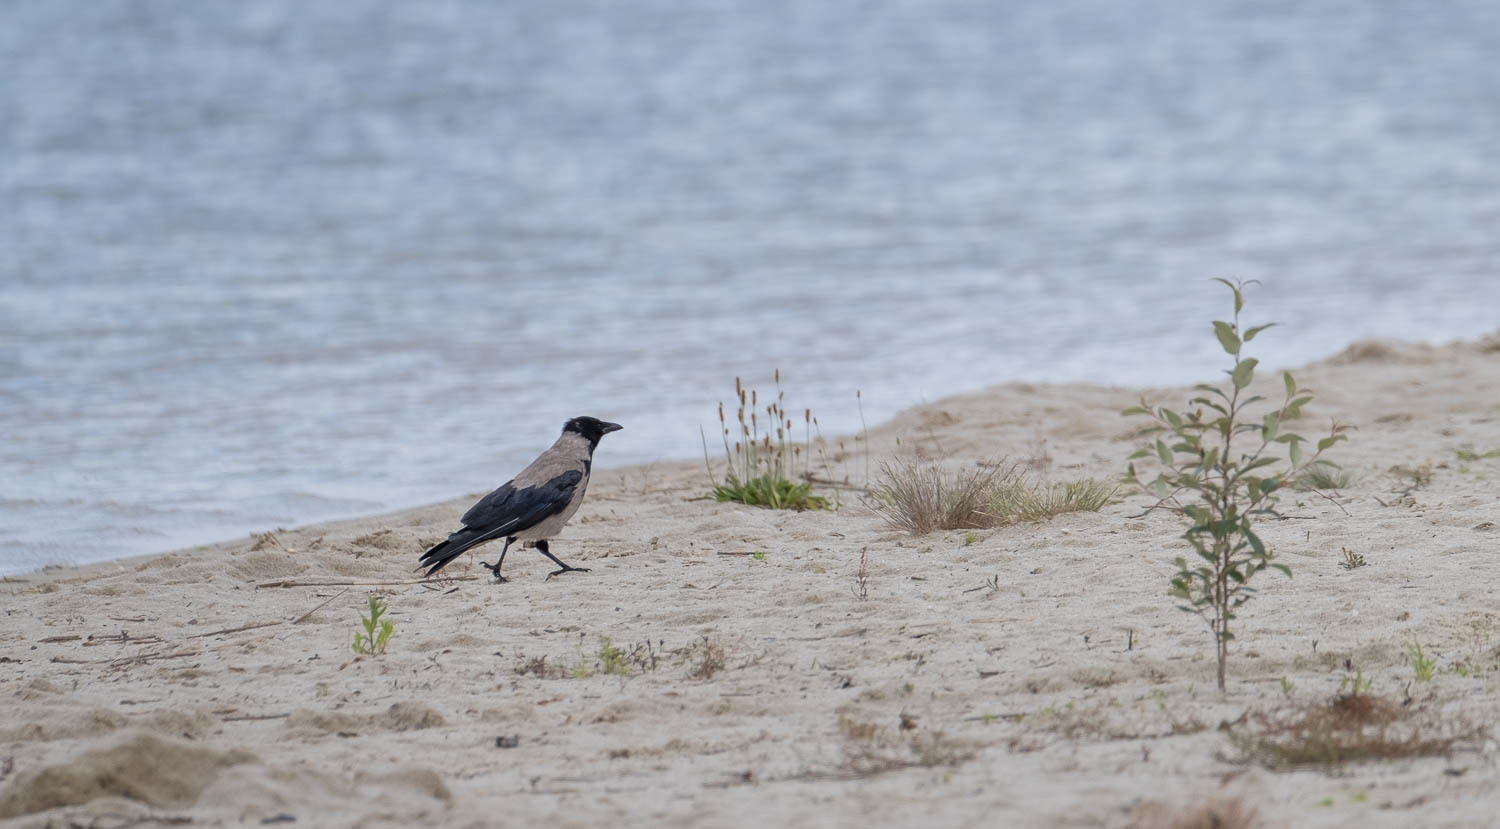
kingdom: Animalia
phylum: Chordata
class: Aves
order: Passeriformes
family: Corvidae
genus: Corvus
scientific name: Corvus cornix
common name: Hooded crow
